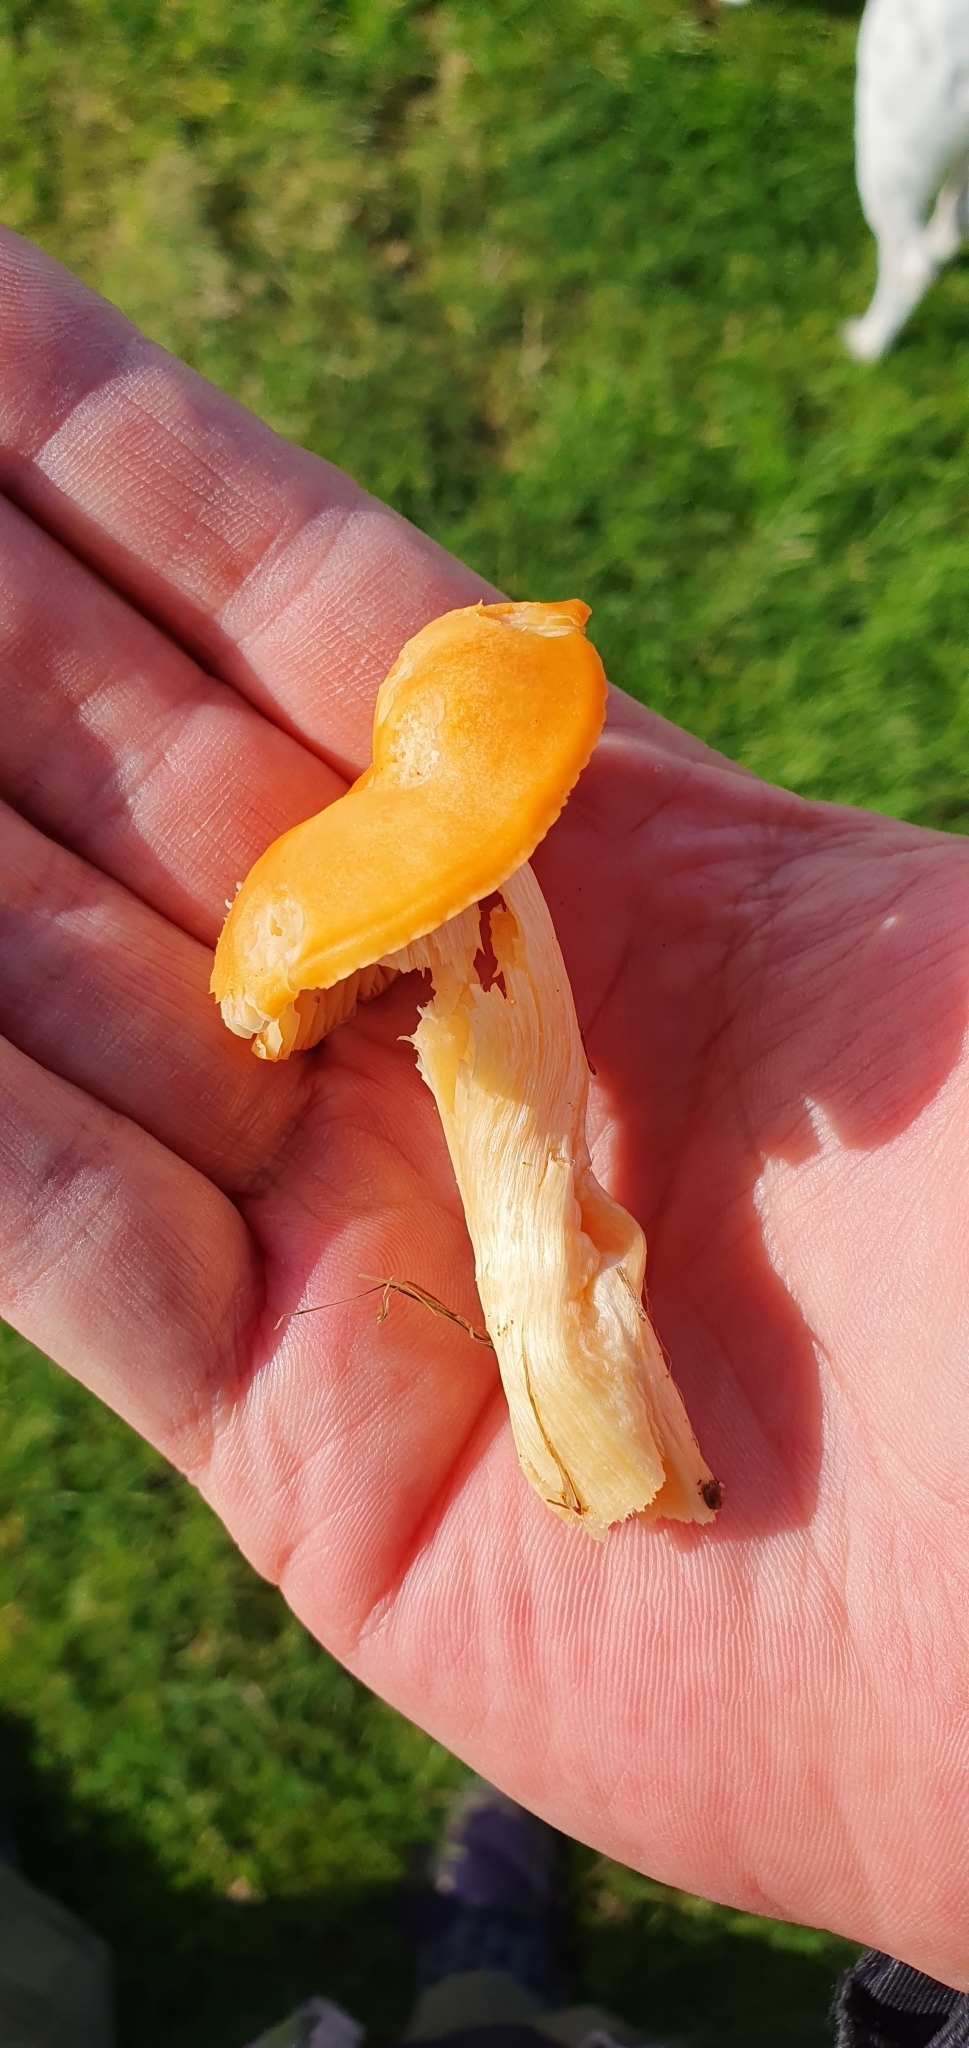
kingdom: Fungi
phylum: Basidiomycota
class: Agaricomycetes
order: Agaricales
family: Hygrophoraceae
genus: Cuphophyllus
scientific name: Cuphophyllus pratensis
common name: Meadow waxcap
